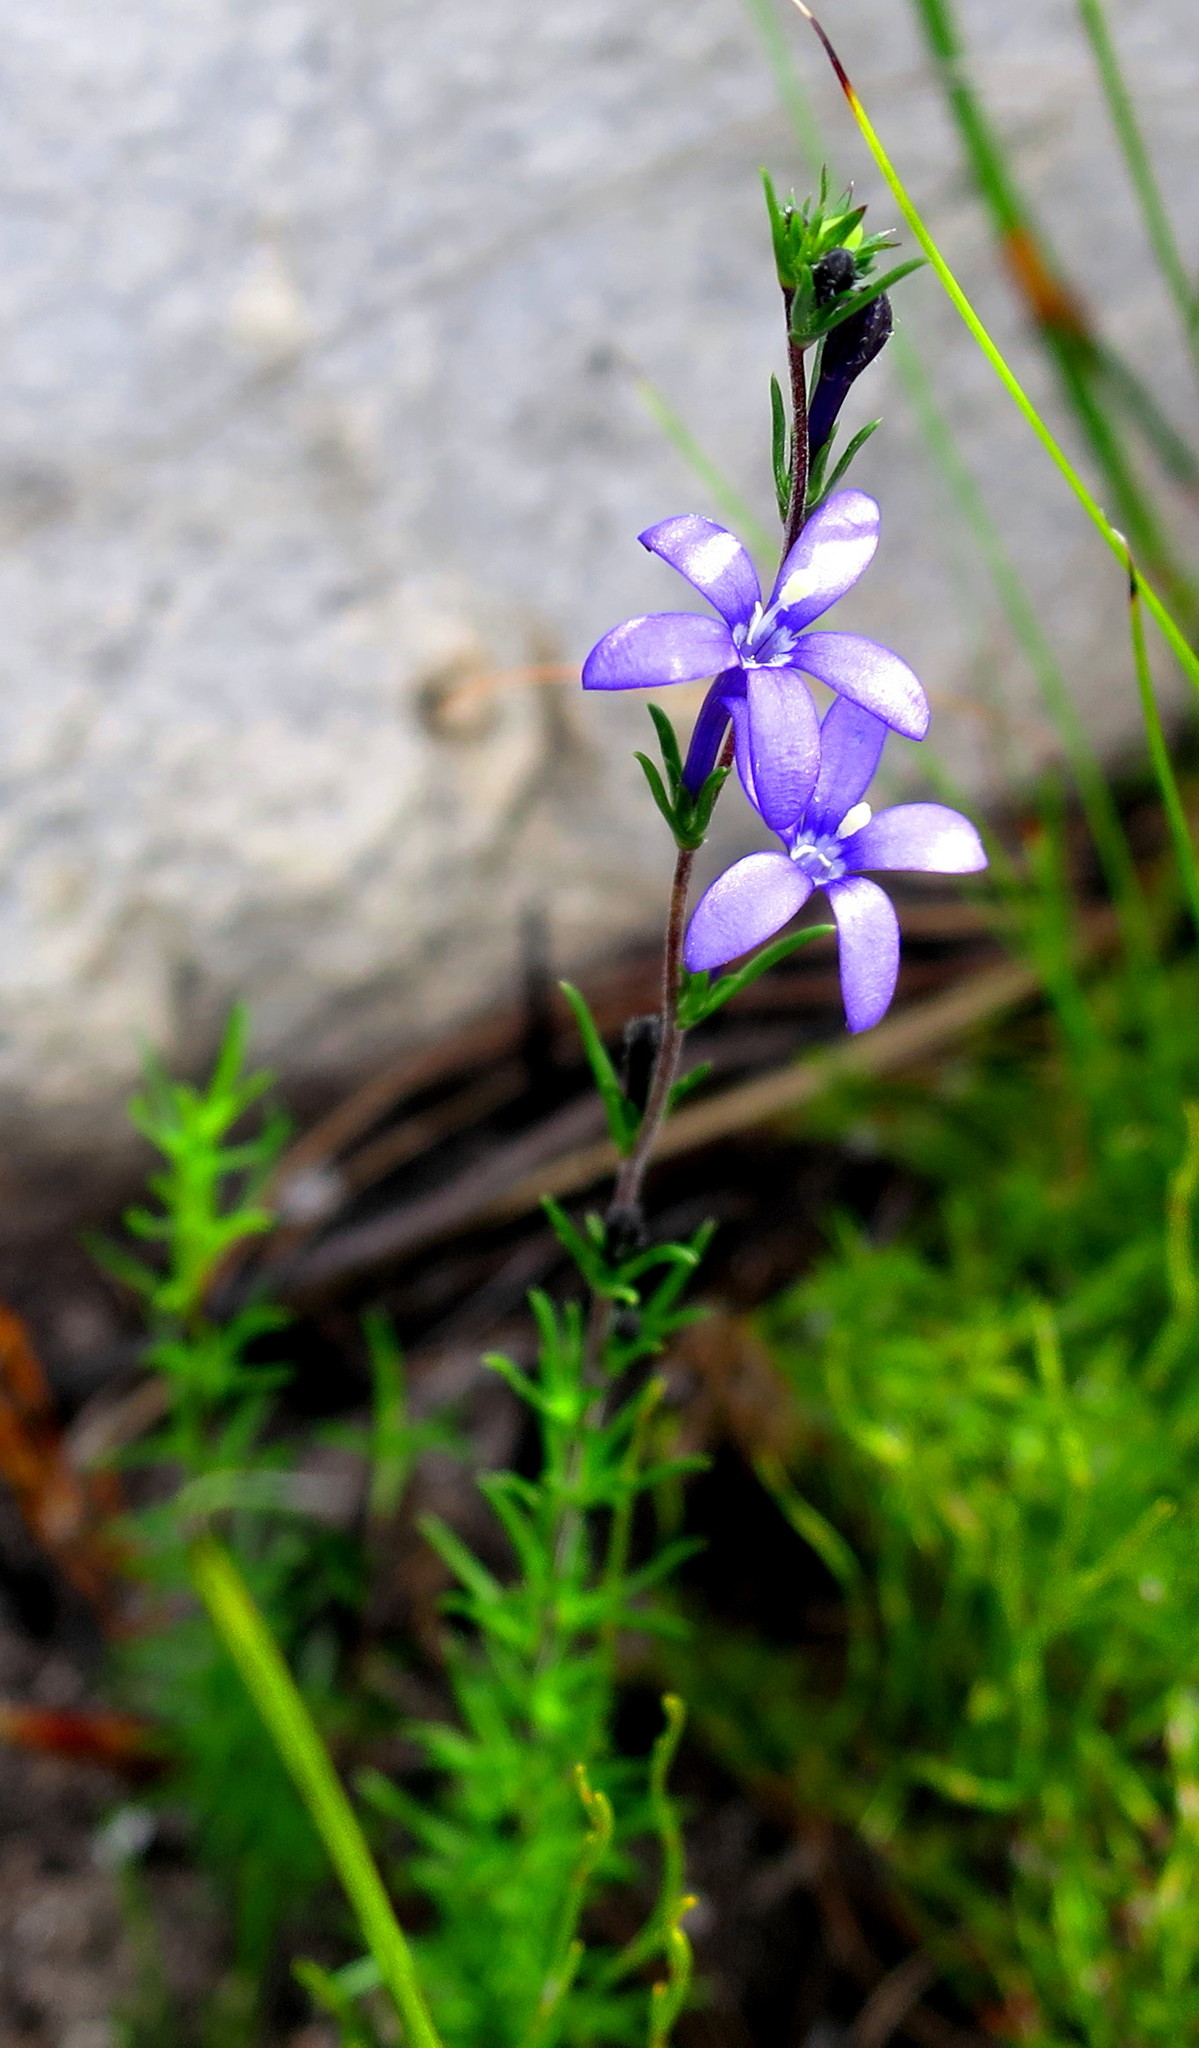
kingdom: Plantae
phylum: Tracheophyta
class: Magnoliopsida
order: Asterales
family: Campanulaceae
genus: Theilera
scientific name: Theilera guthriei
